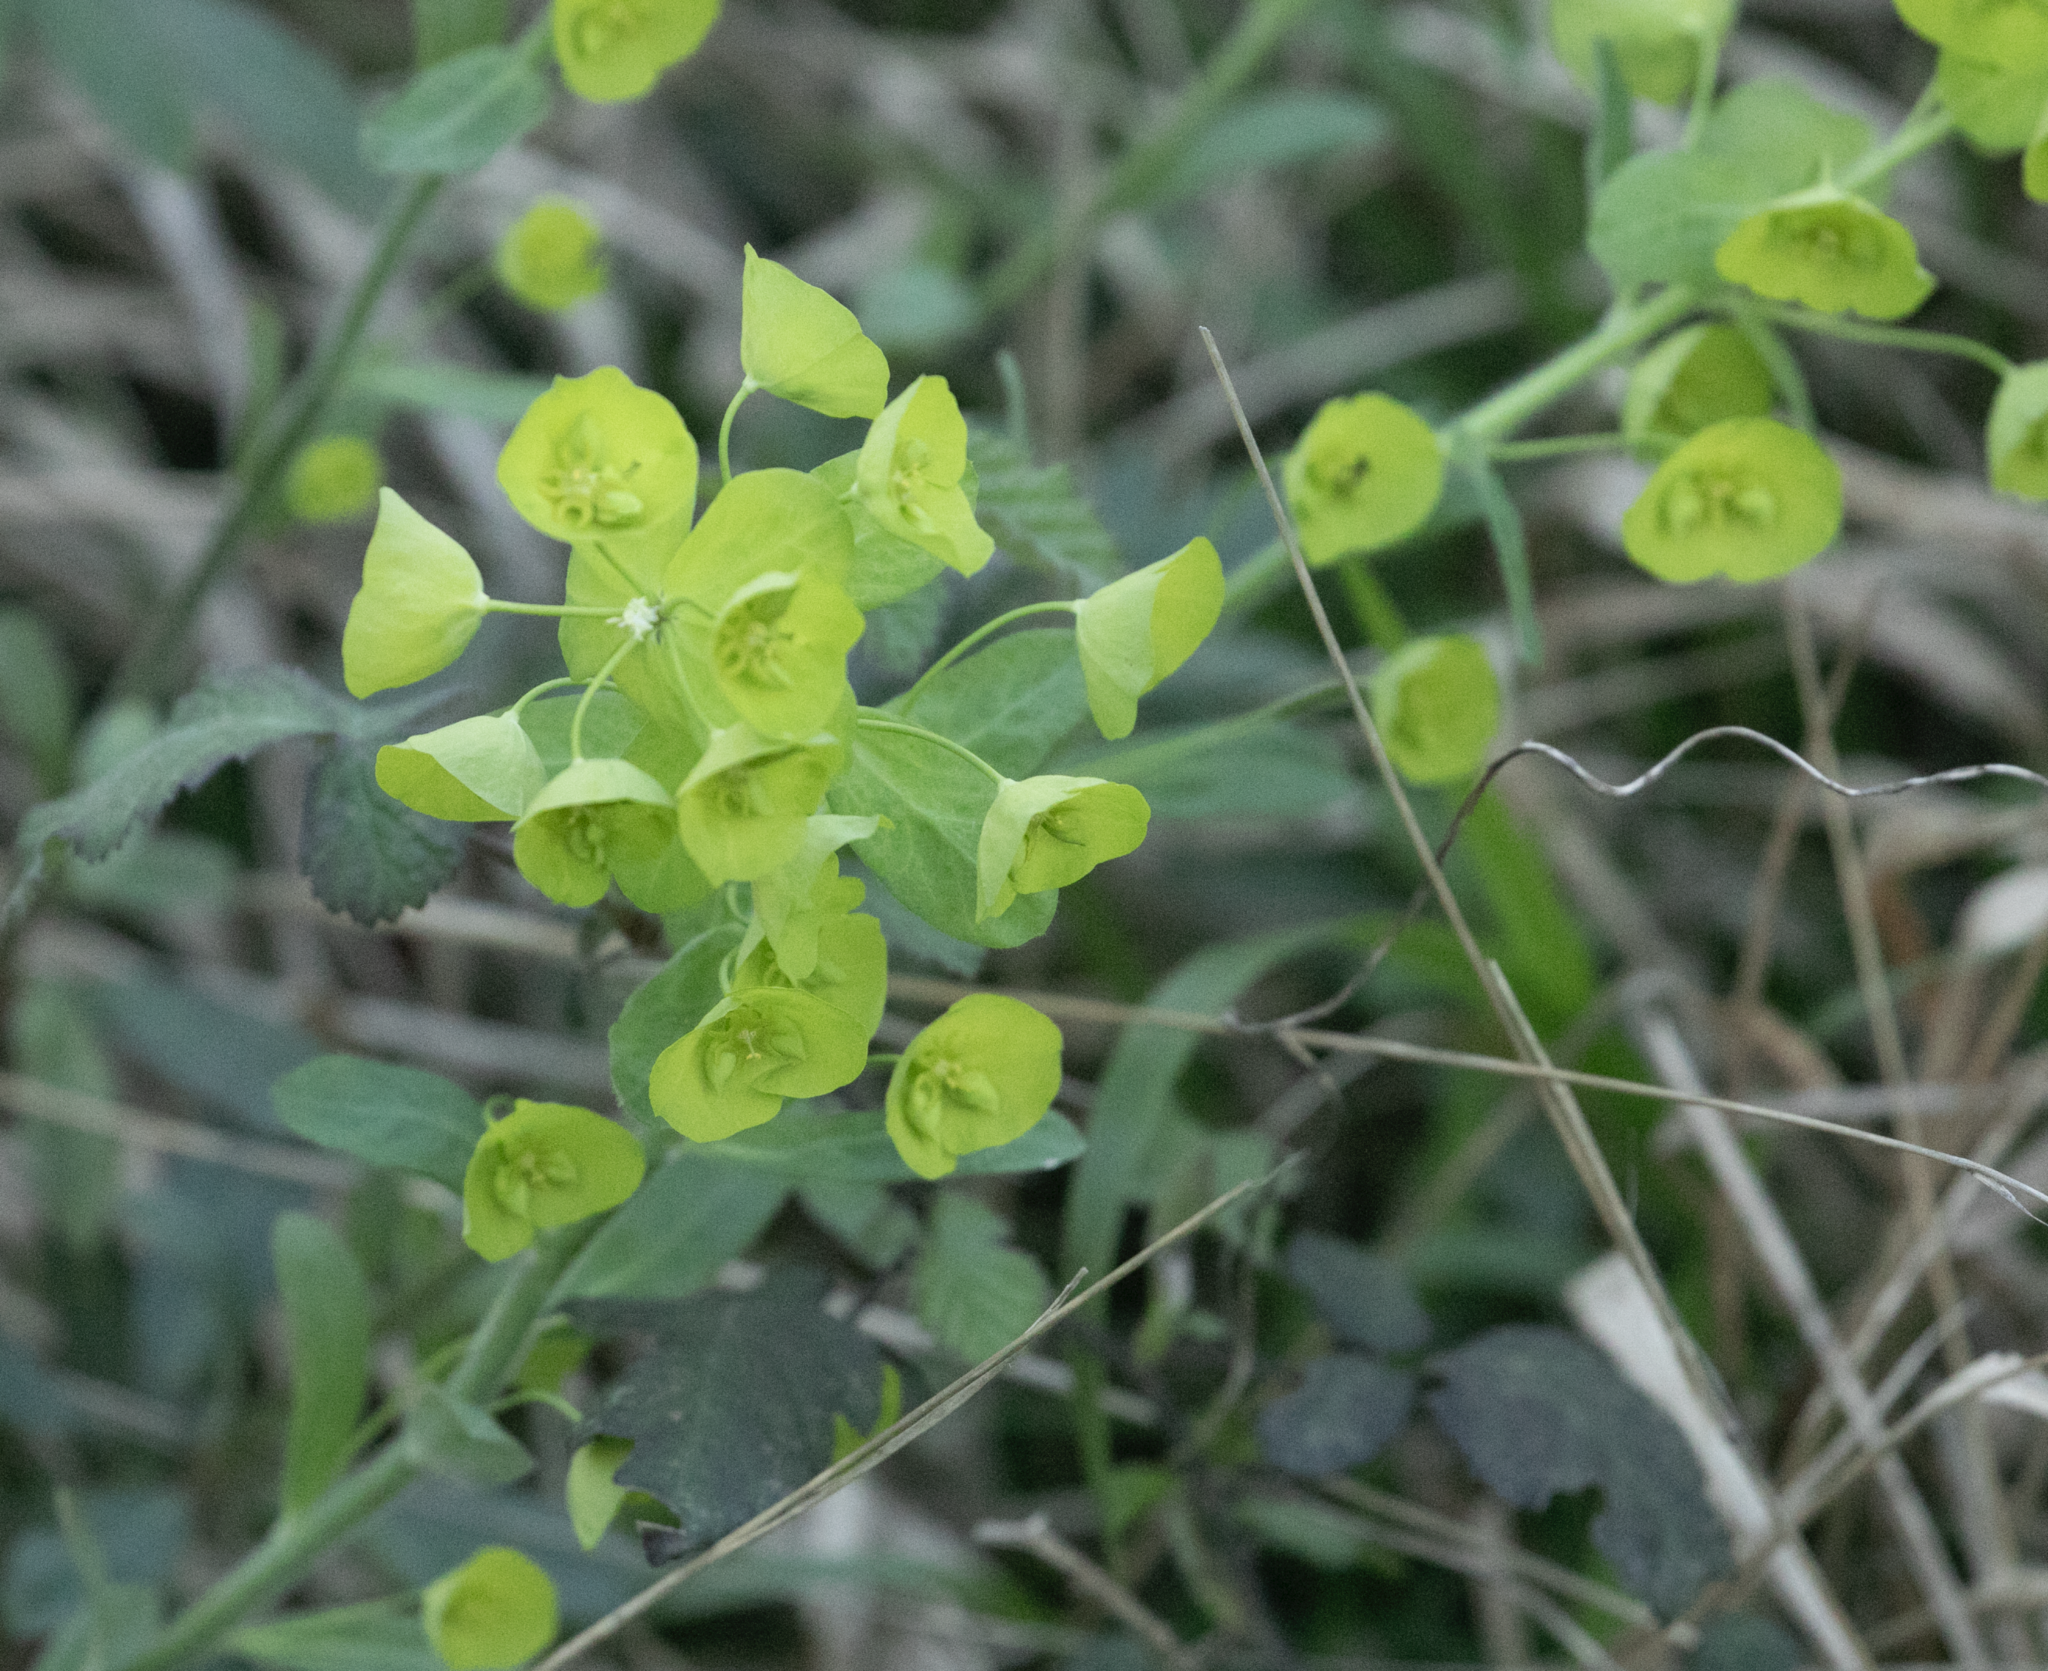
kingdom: Plantae
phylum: Tracheophyta
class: Magnoliopsida
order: Malpighiales
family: Euphorbiaceae
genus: Euphorbia
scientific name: Euphorbia amygdaloides
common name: Wood spurge
